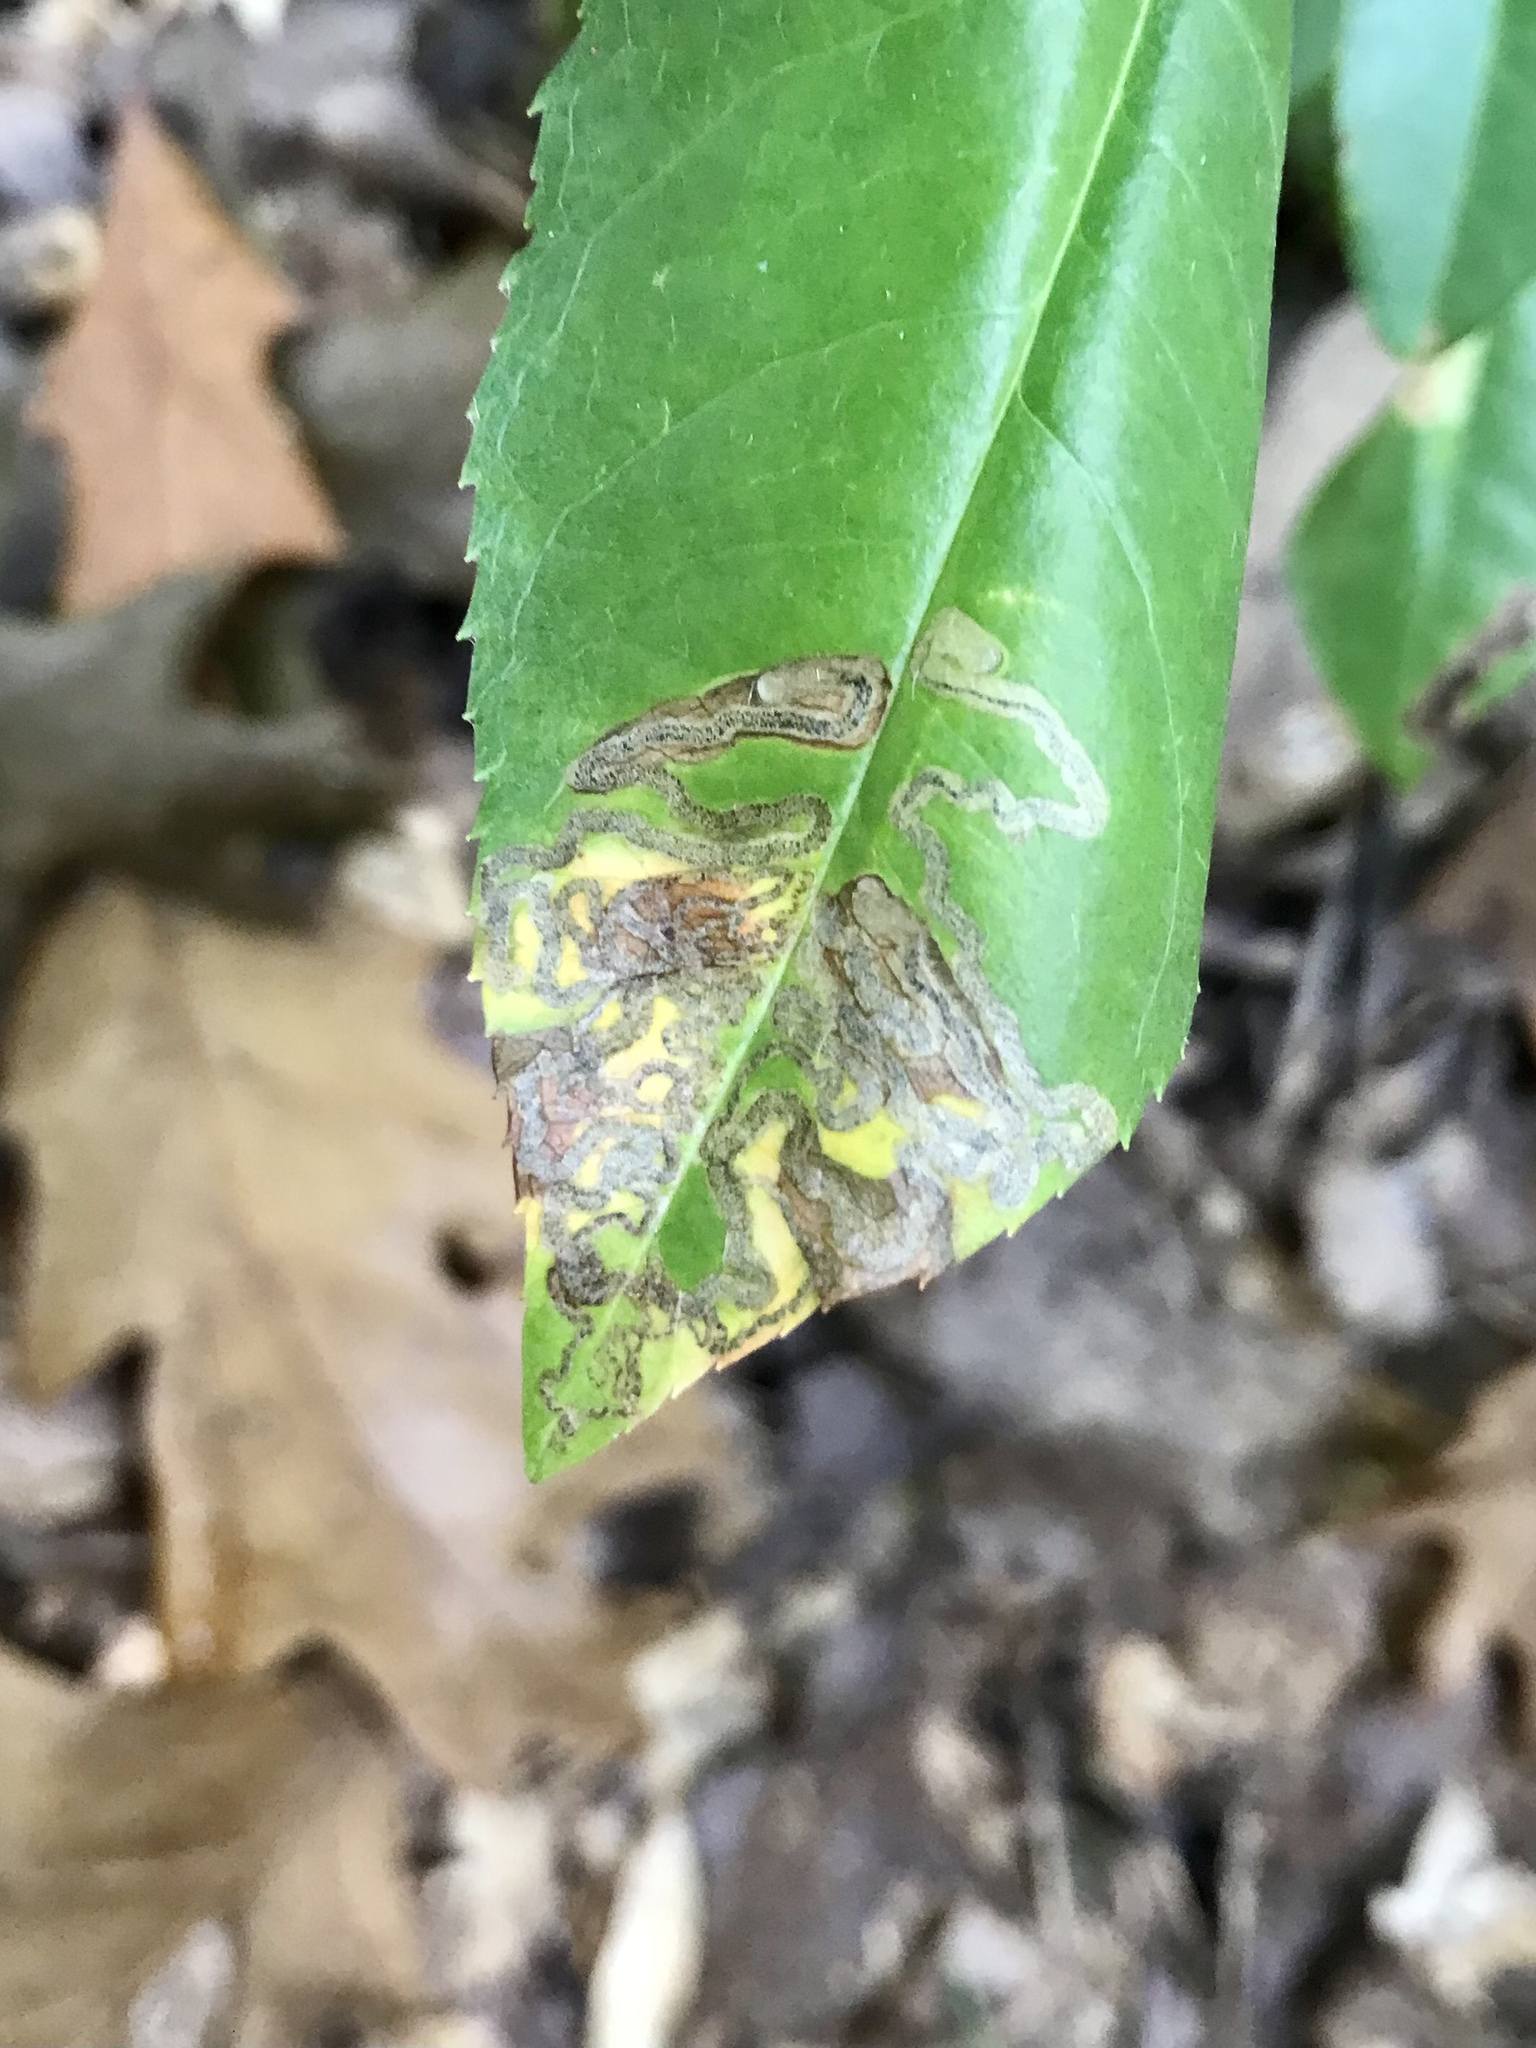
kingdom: Animalia
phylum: Arthropoda
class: Insecta
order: Lepidoptera
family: Nepticulidae
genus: Stigmella
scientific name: Stigmella prunifoliella
